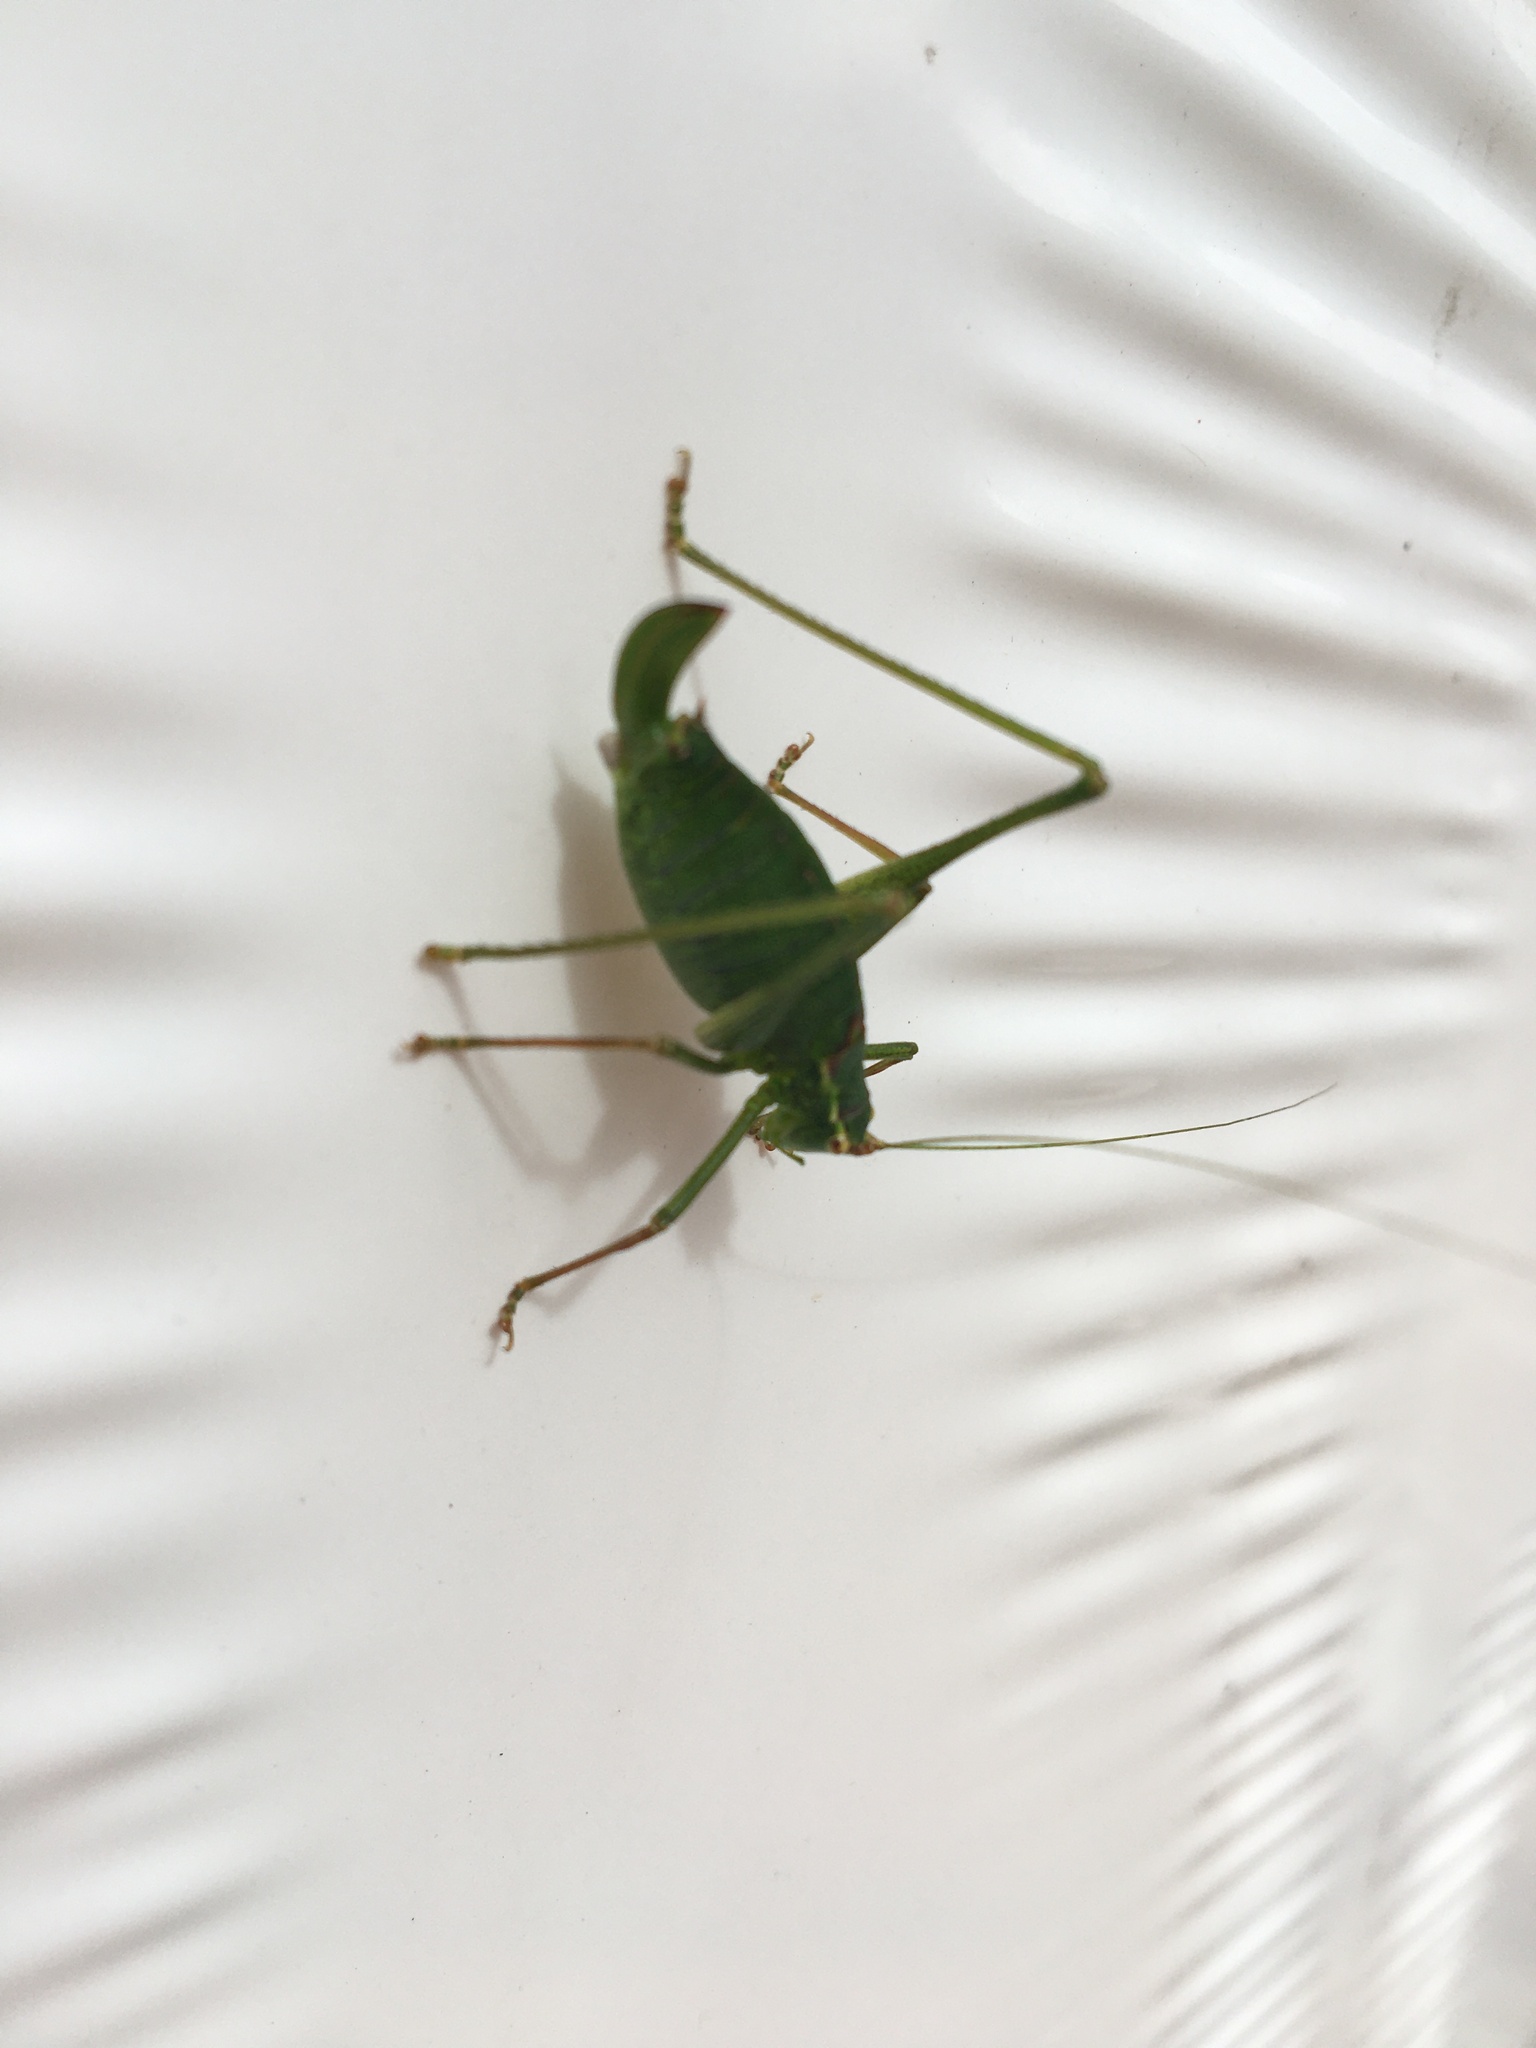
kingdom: Animalia
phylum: Arthropoda
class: Insecta
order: Orthoptera
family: Tettigoniidae
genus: Leptophyes
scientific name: Leptophyes punctatissima
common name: Speckled bush-cricket
